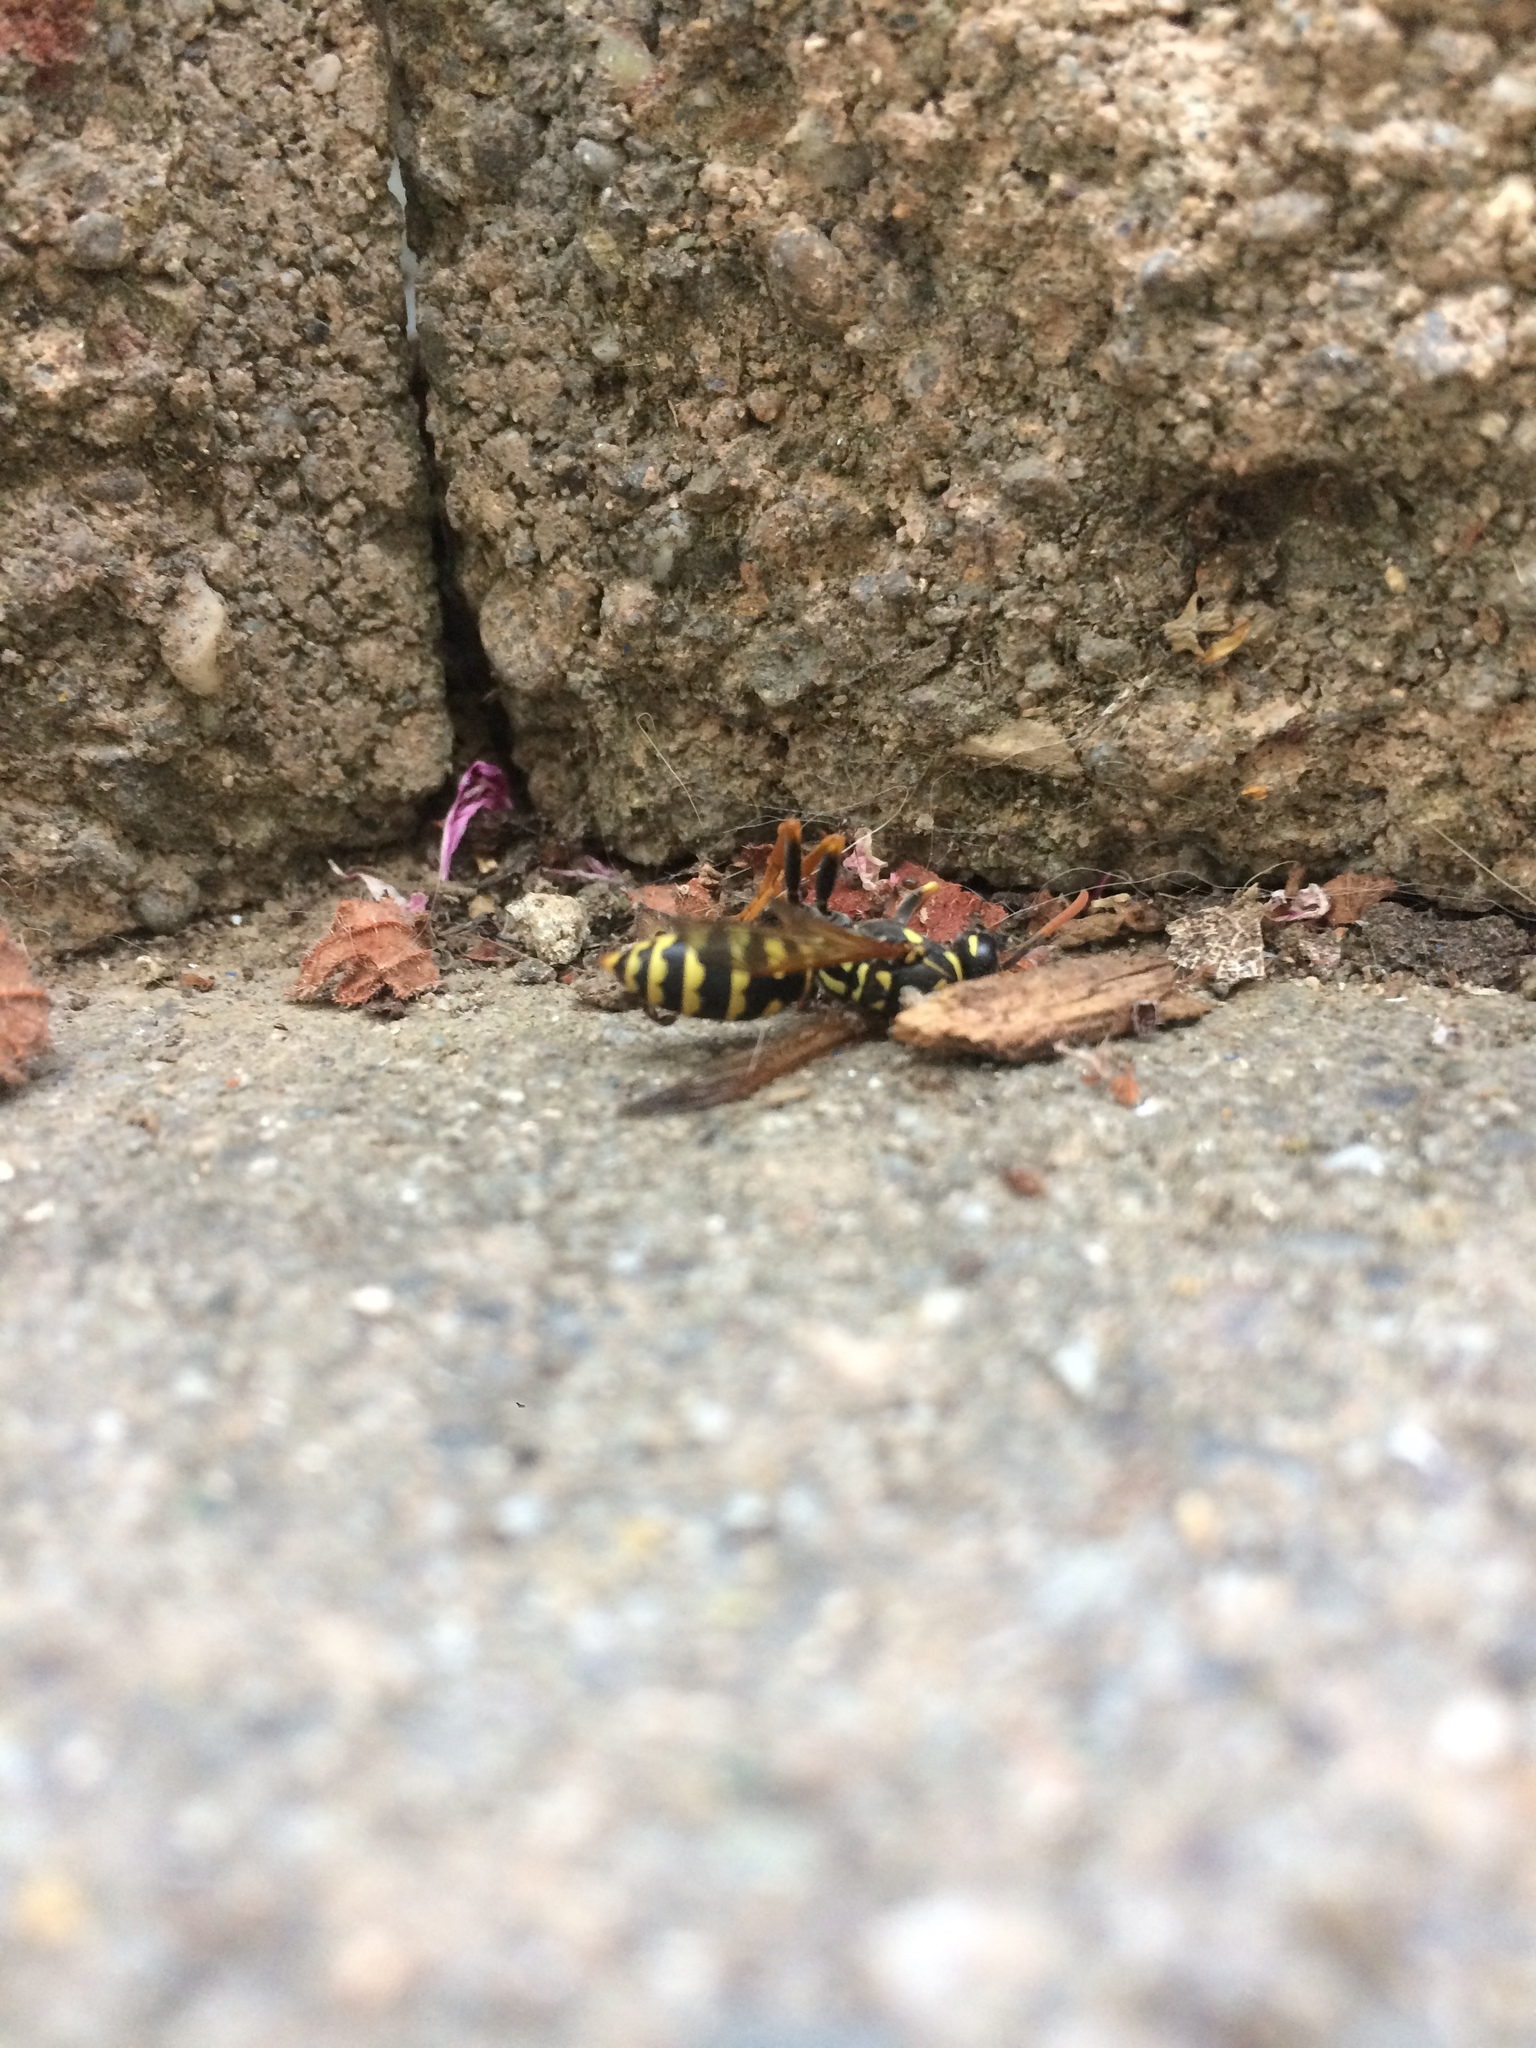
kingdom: Animalia
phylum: Arthropoda
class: Insecta
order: Hymenoptera
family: Eumenidae
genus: Polistes
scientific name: Polistes dominula
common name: Paper wasp
